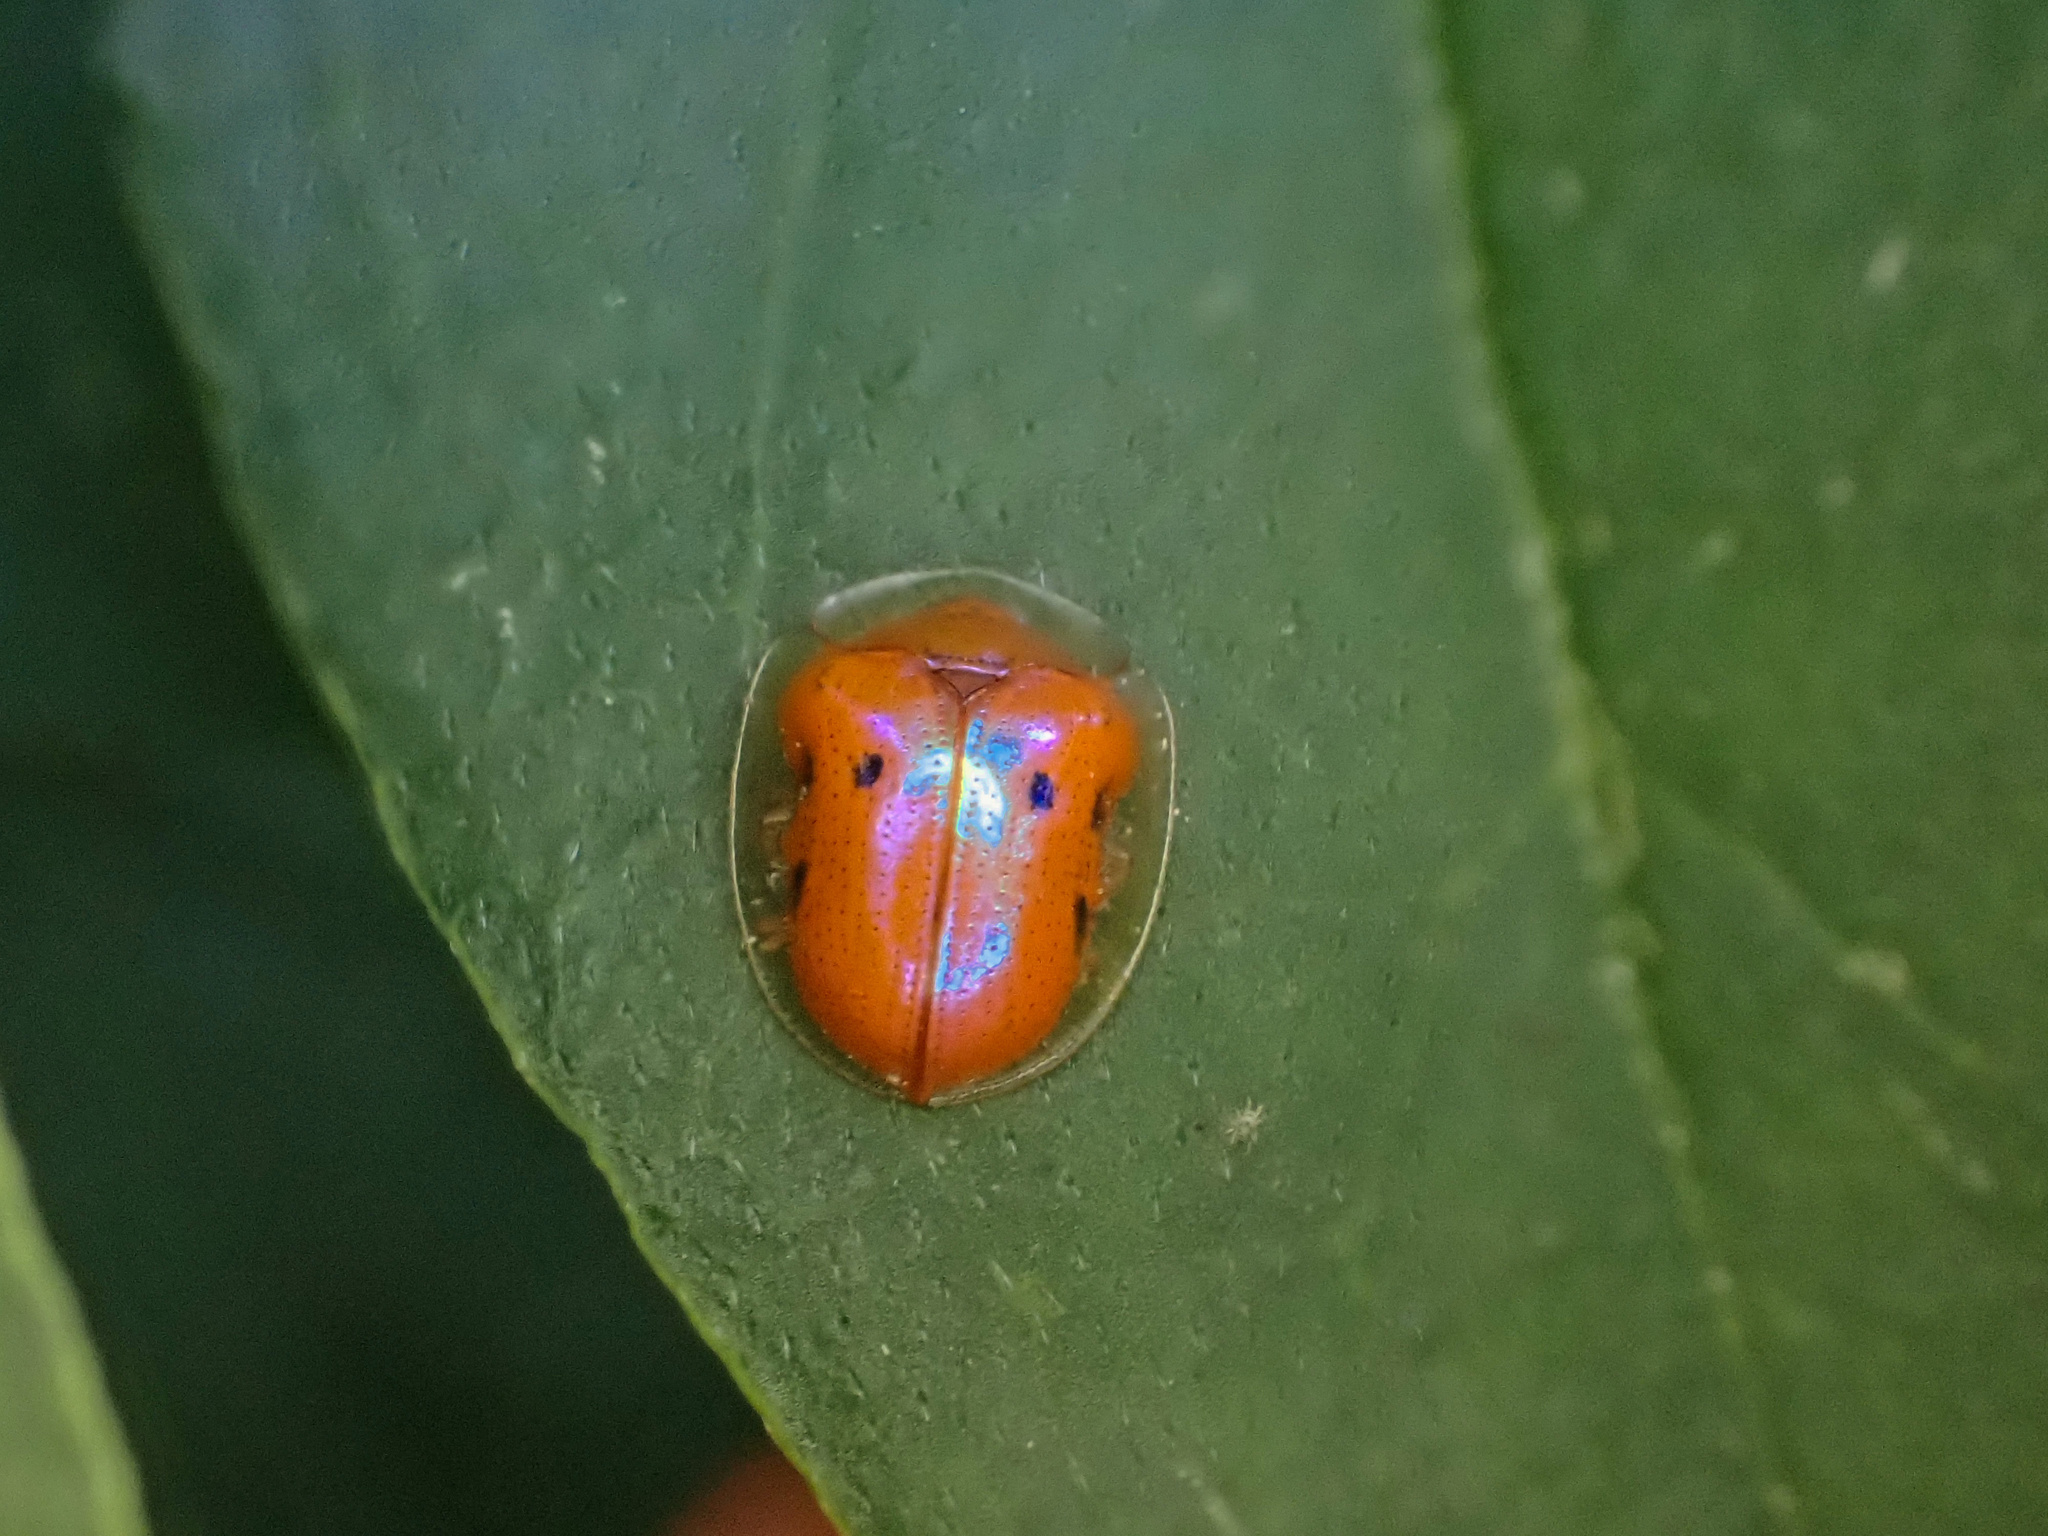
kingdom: Animalia
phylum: Arthropoda
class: Insecta
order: Coleoptera
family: Chrysomelidae
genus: Charidotella
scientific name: Charidotella sexpunctata
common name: Golden tortoise beetle
